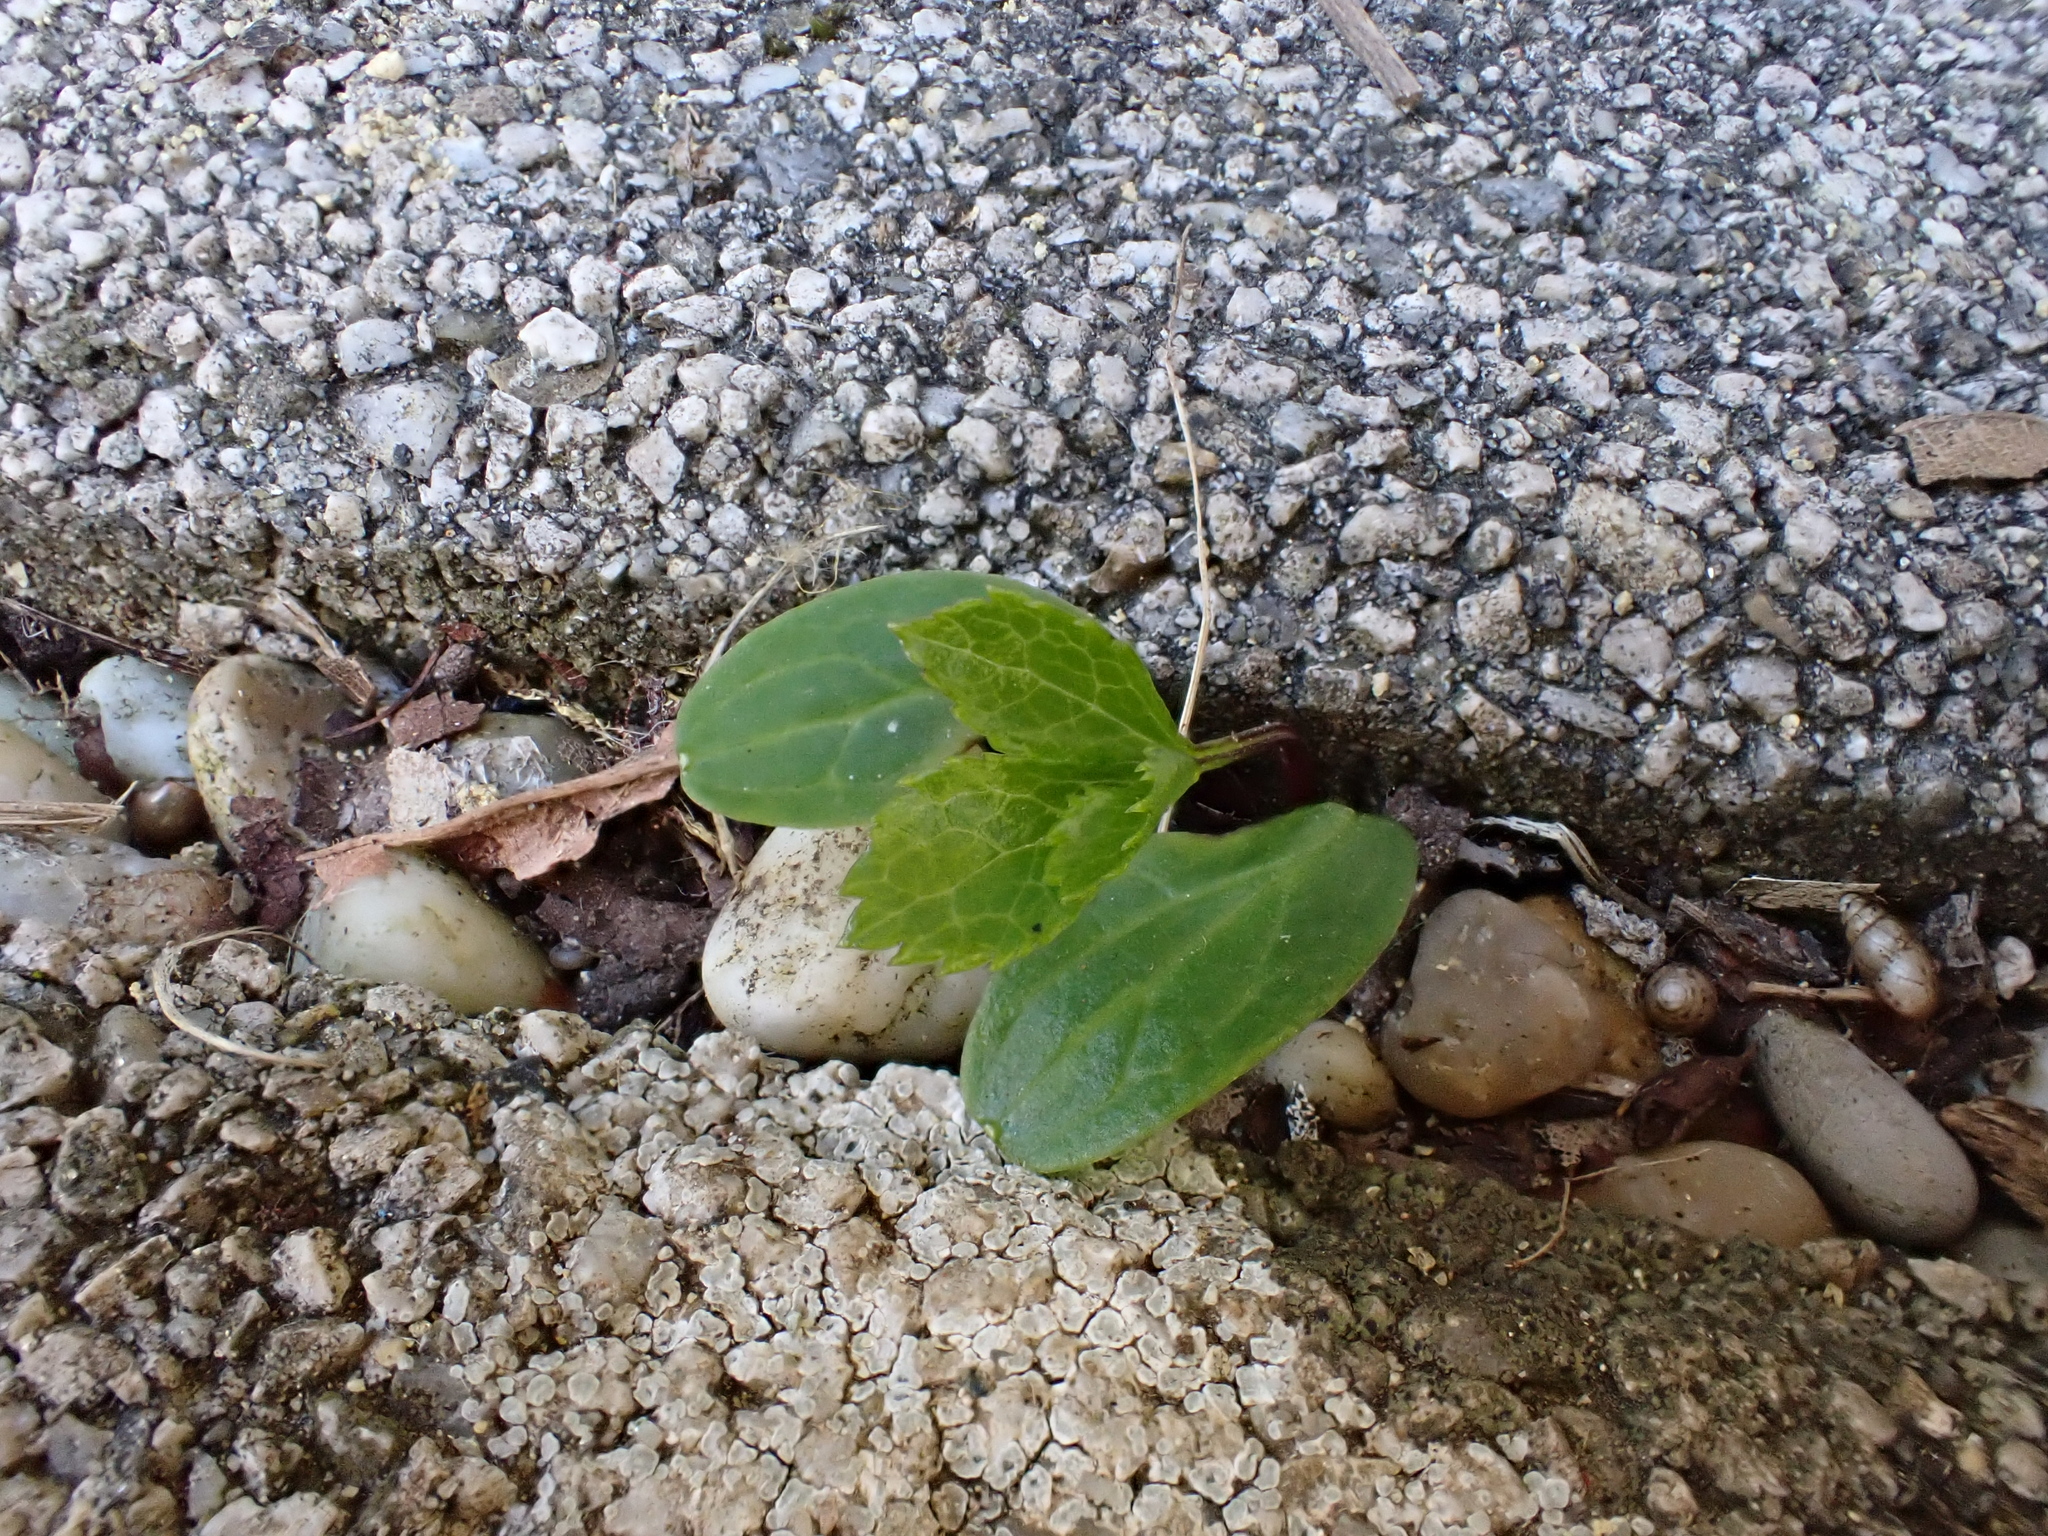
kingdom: Plantae
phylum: Tracheophyta
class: Magnoliopsida
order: Ranunculales
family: Ranunculaceae
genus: Helleborus
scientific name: Helleborus hybridus
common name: Hybrid lenten-rose
